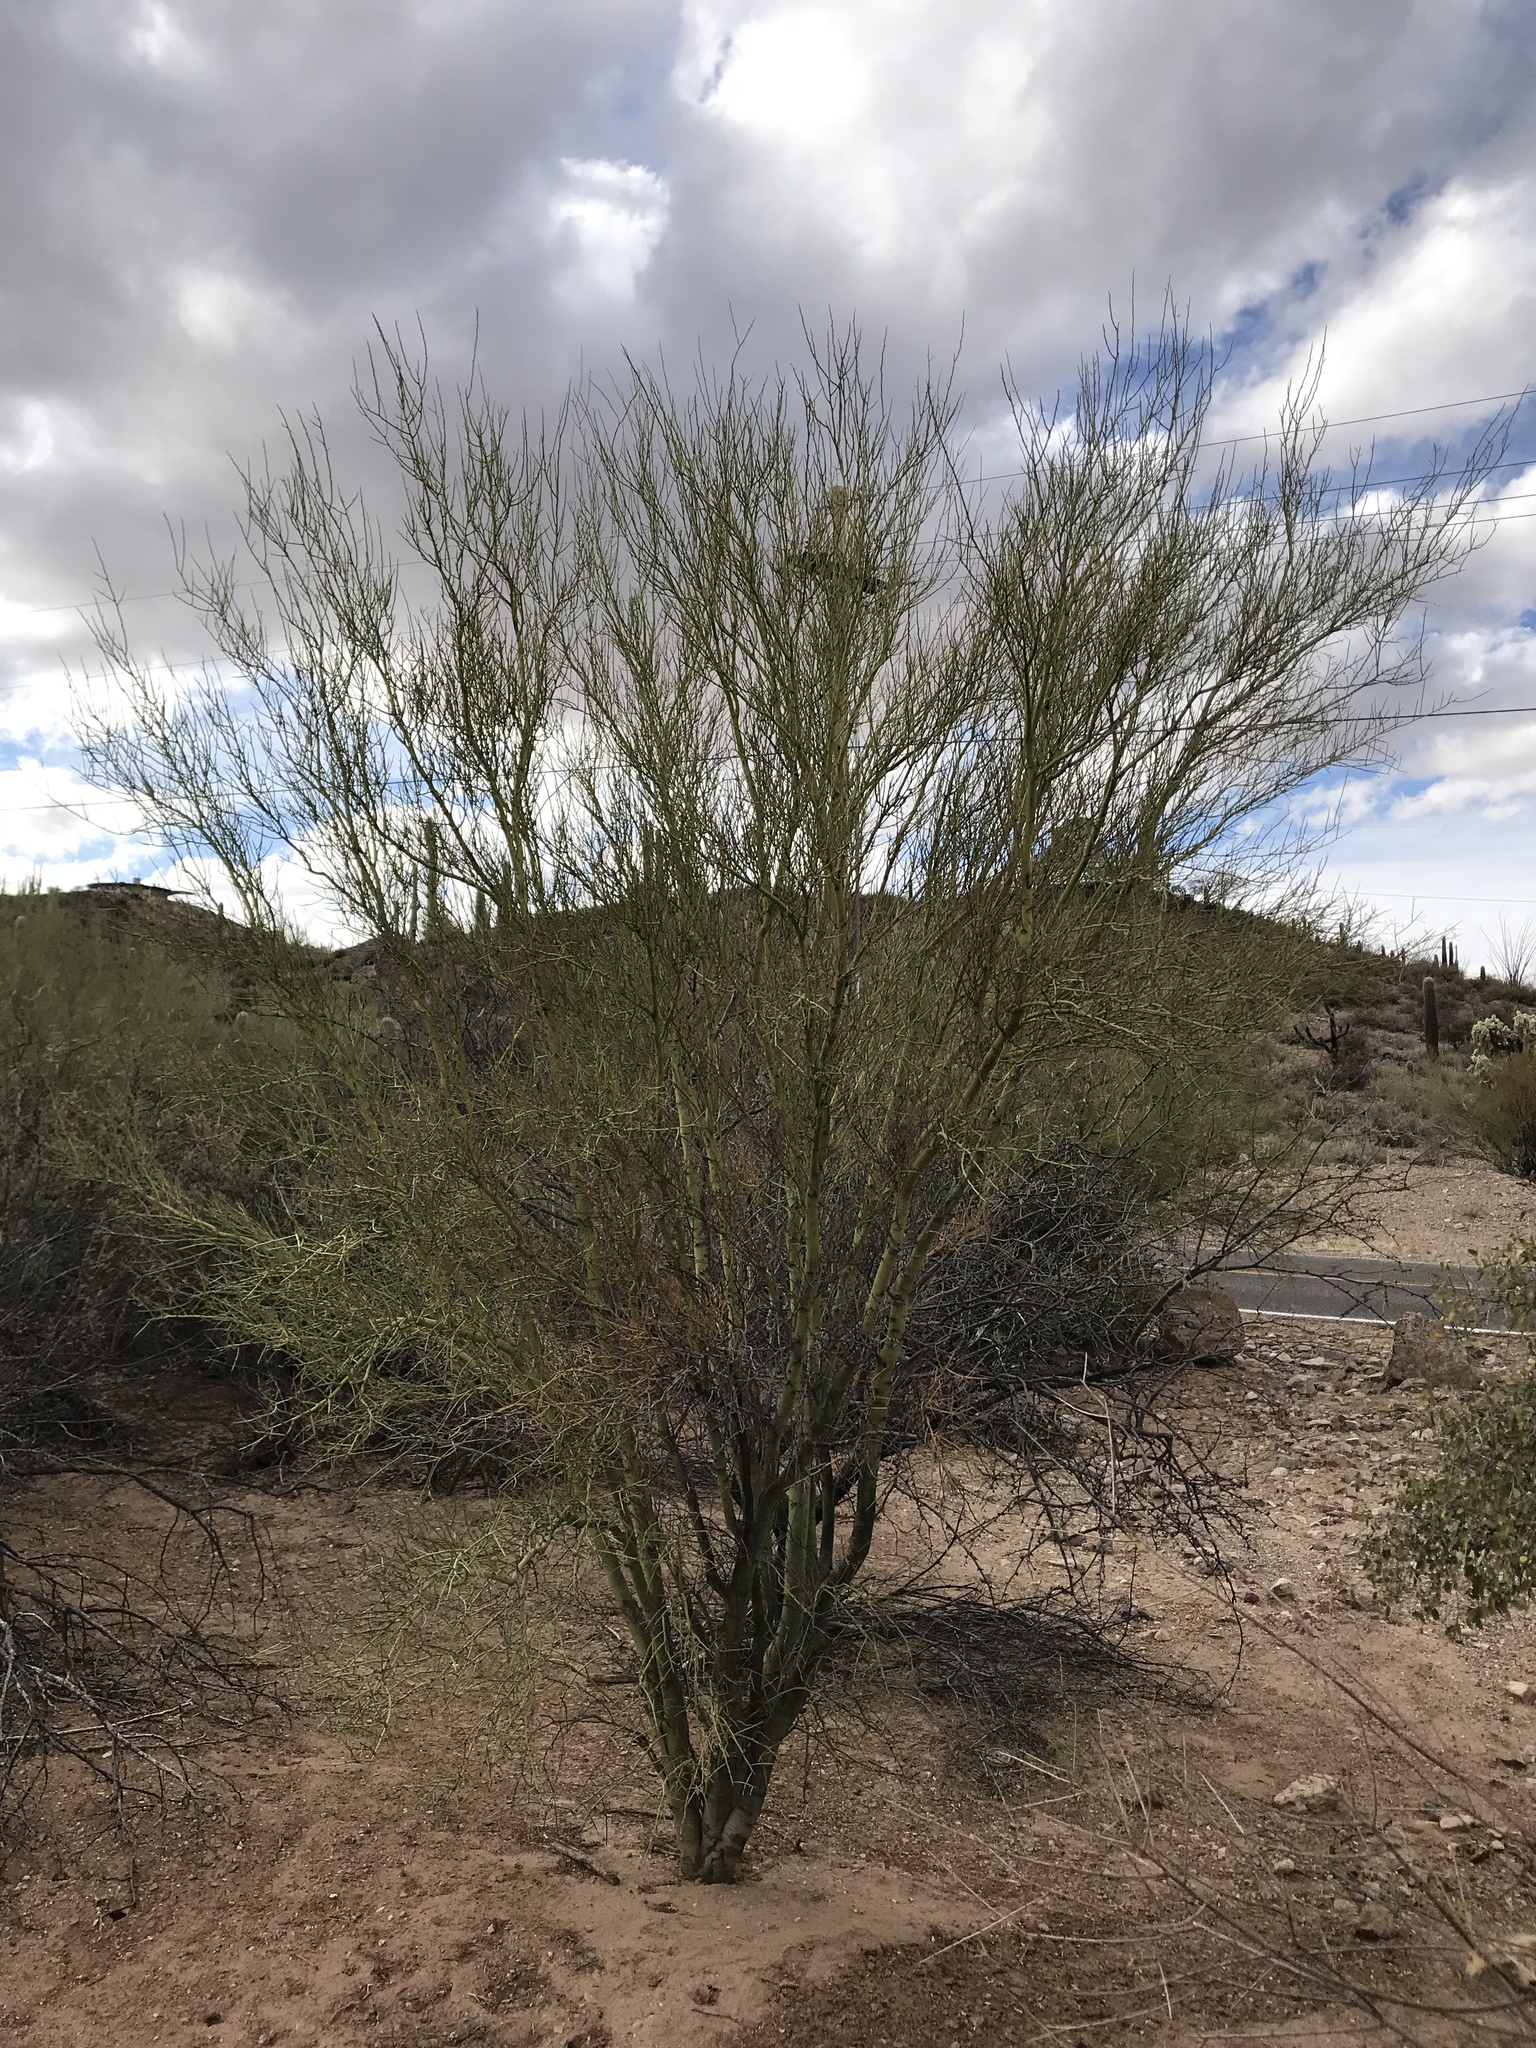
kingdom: Plantae
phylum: Tracheophyta
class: Magnoliopsida
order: Fabales
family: Fabaceae
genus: Parkinsonia
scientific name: Parkinsonia microphylla
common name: Yellow paloverde
